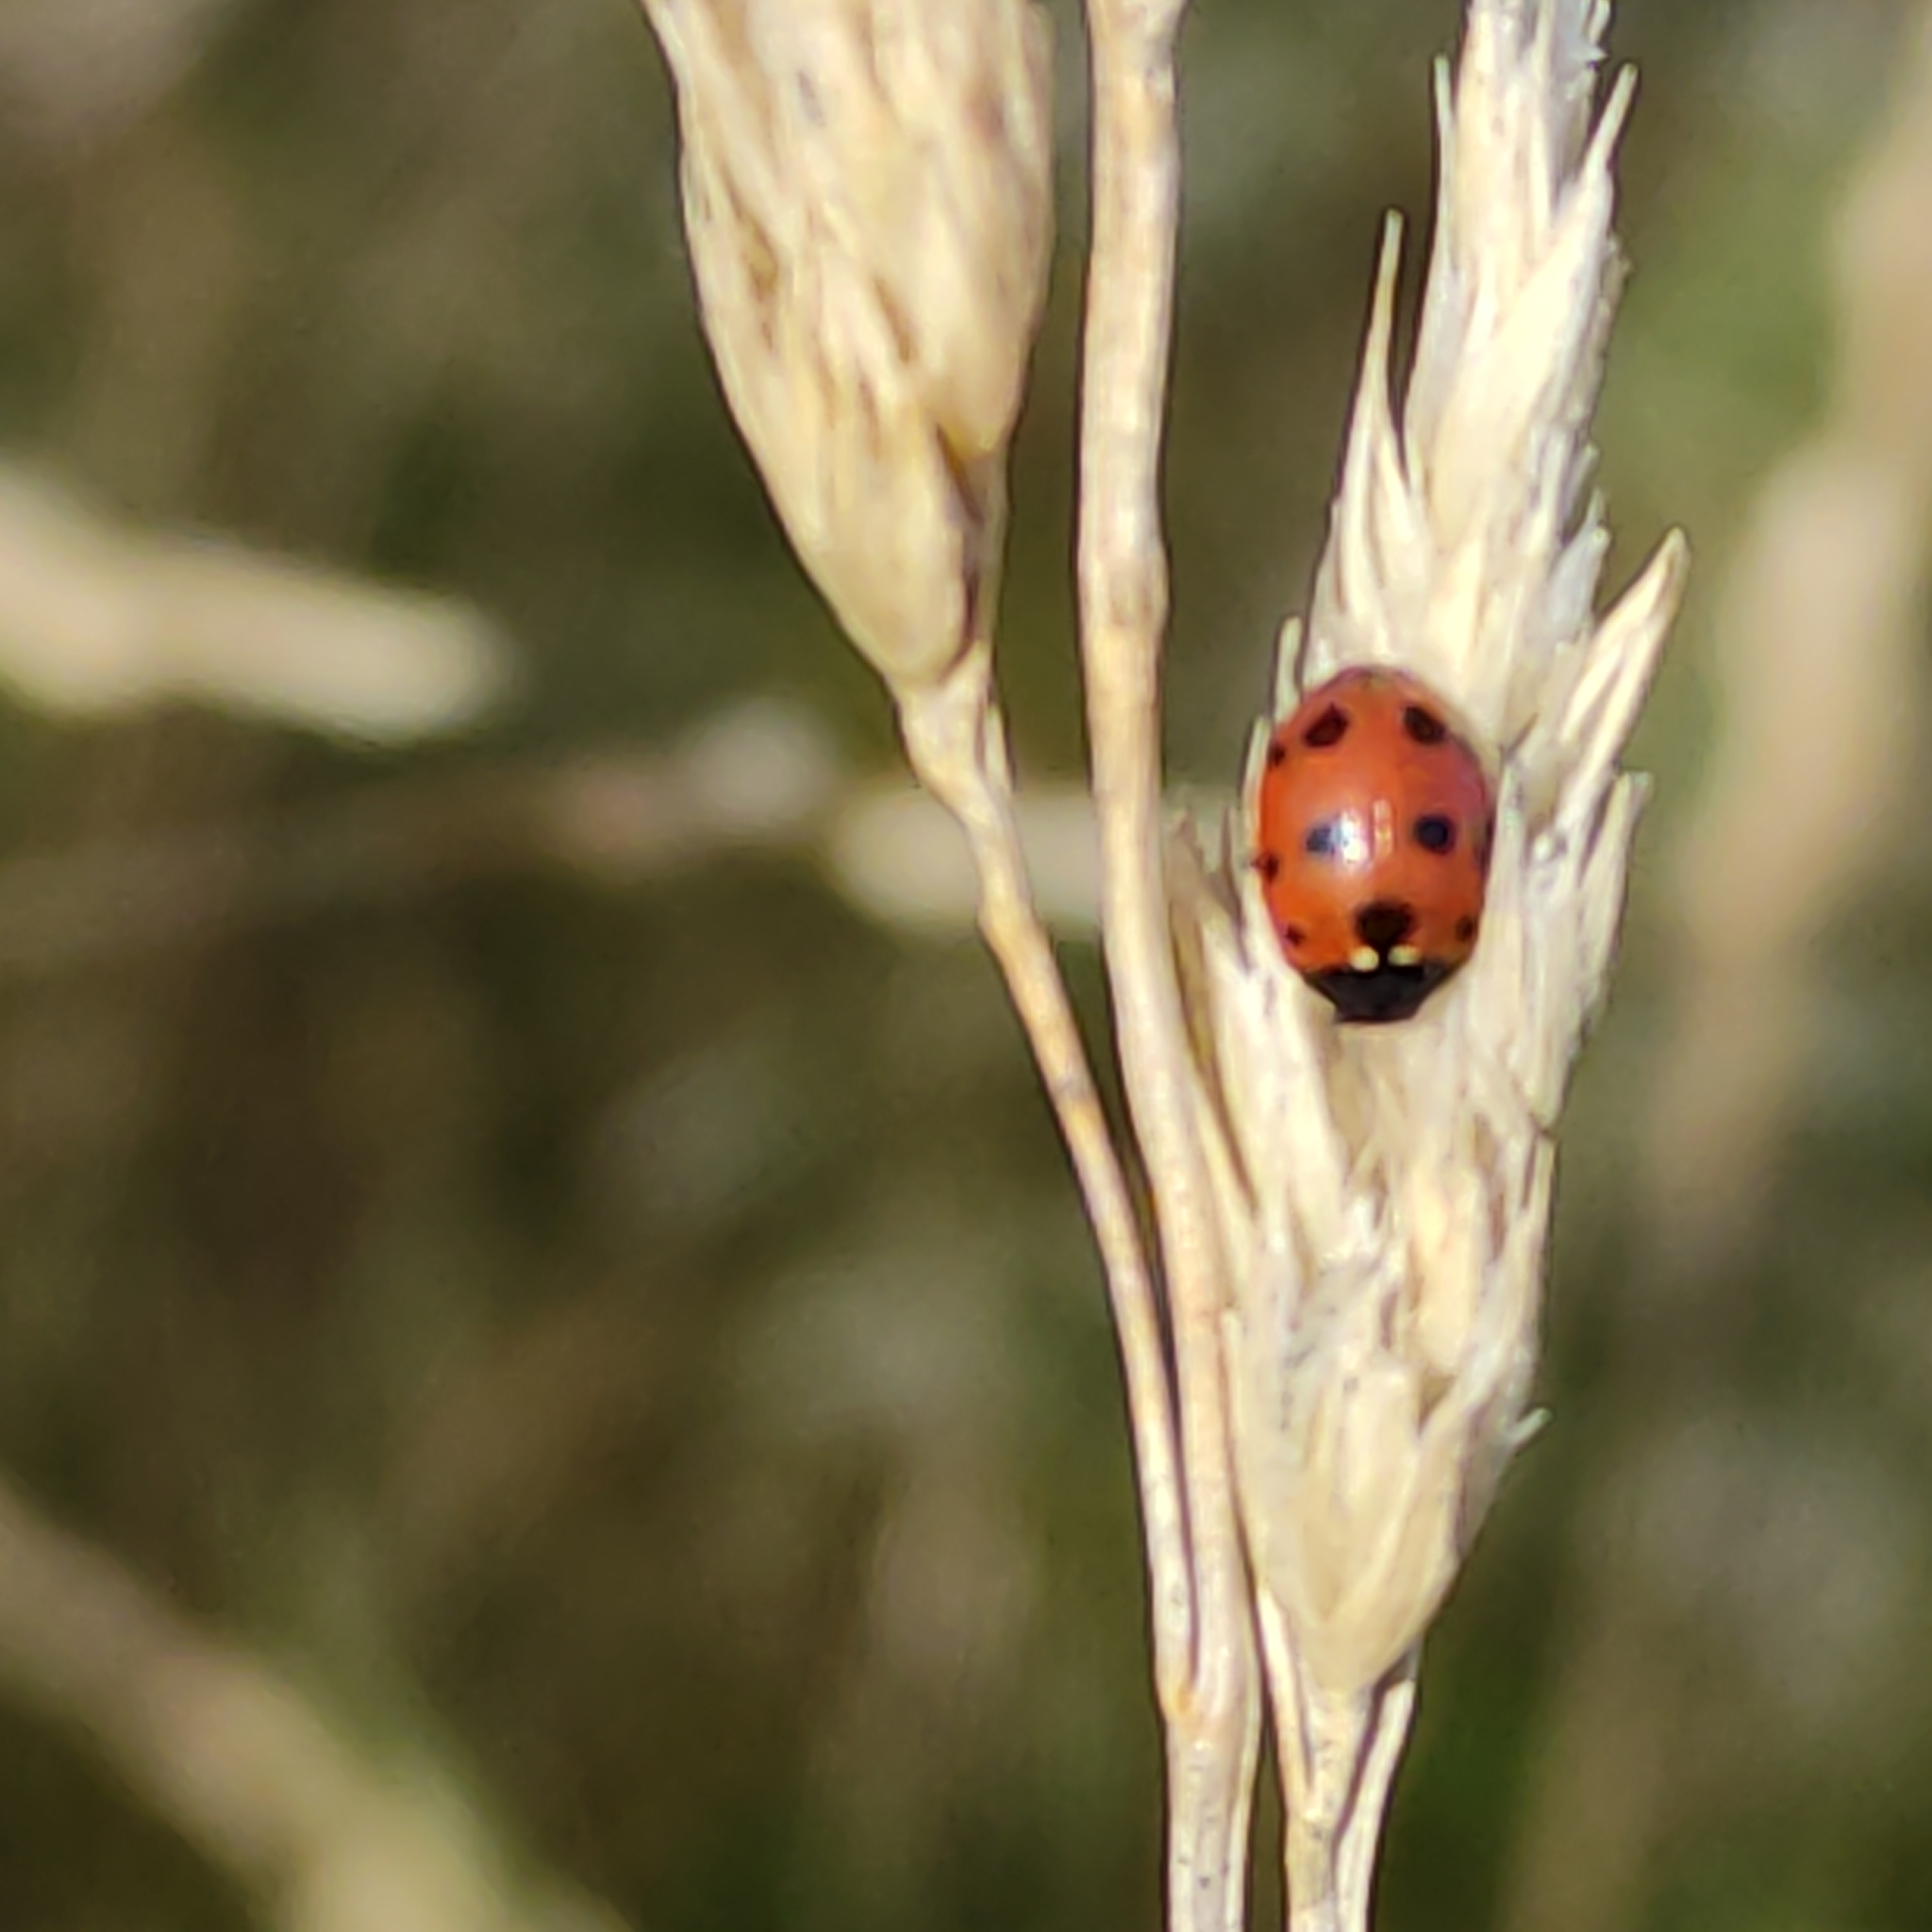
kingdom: Animalia
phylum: Arthropoda
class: Insecta
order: Coleoptera
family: Coccinellidae
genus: Coccinella
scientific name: Coccinella undecimpunctata
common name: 11-spot ladybird
